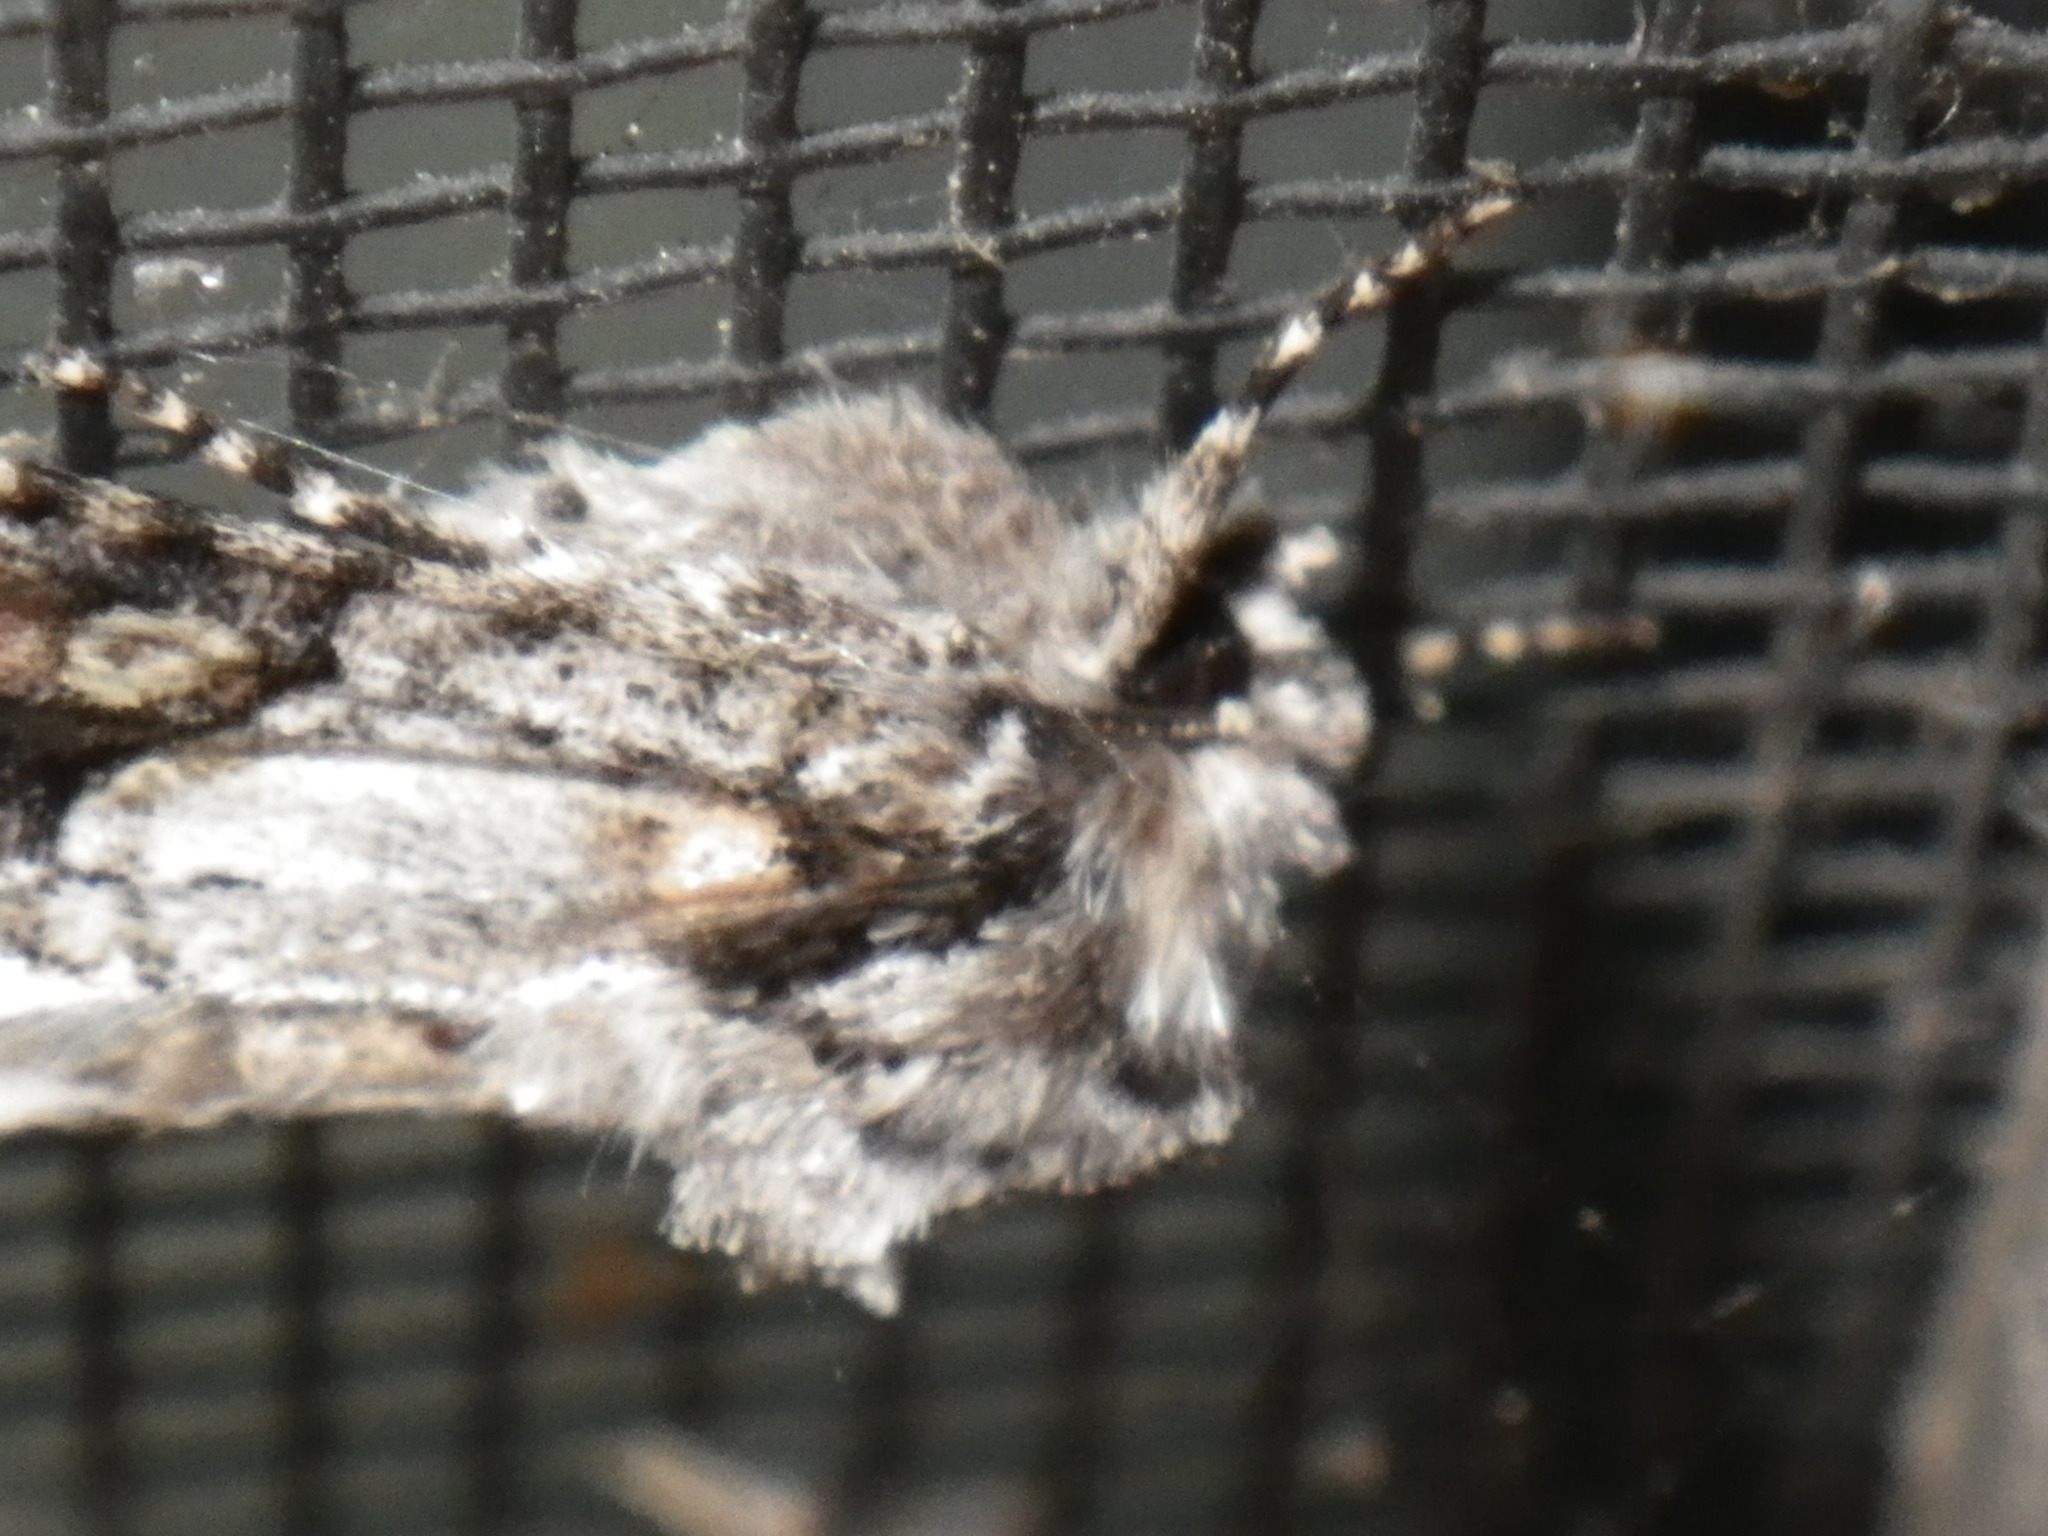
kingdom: Animalia
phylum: Arthropoda
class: Insecta
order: Lepidoptera
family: Noctuidae
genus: Lacinipolia
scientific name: Lacinipolia quadrilineata
